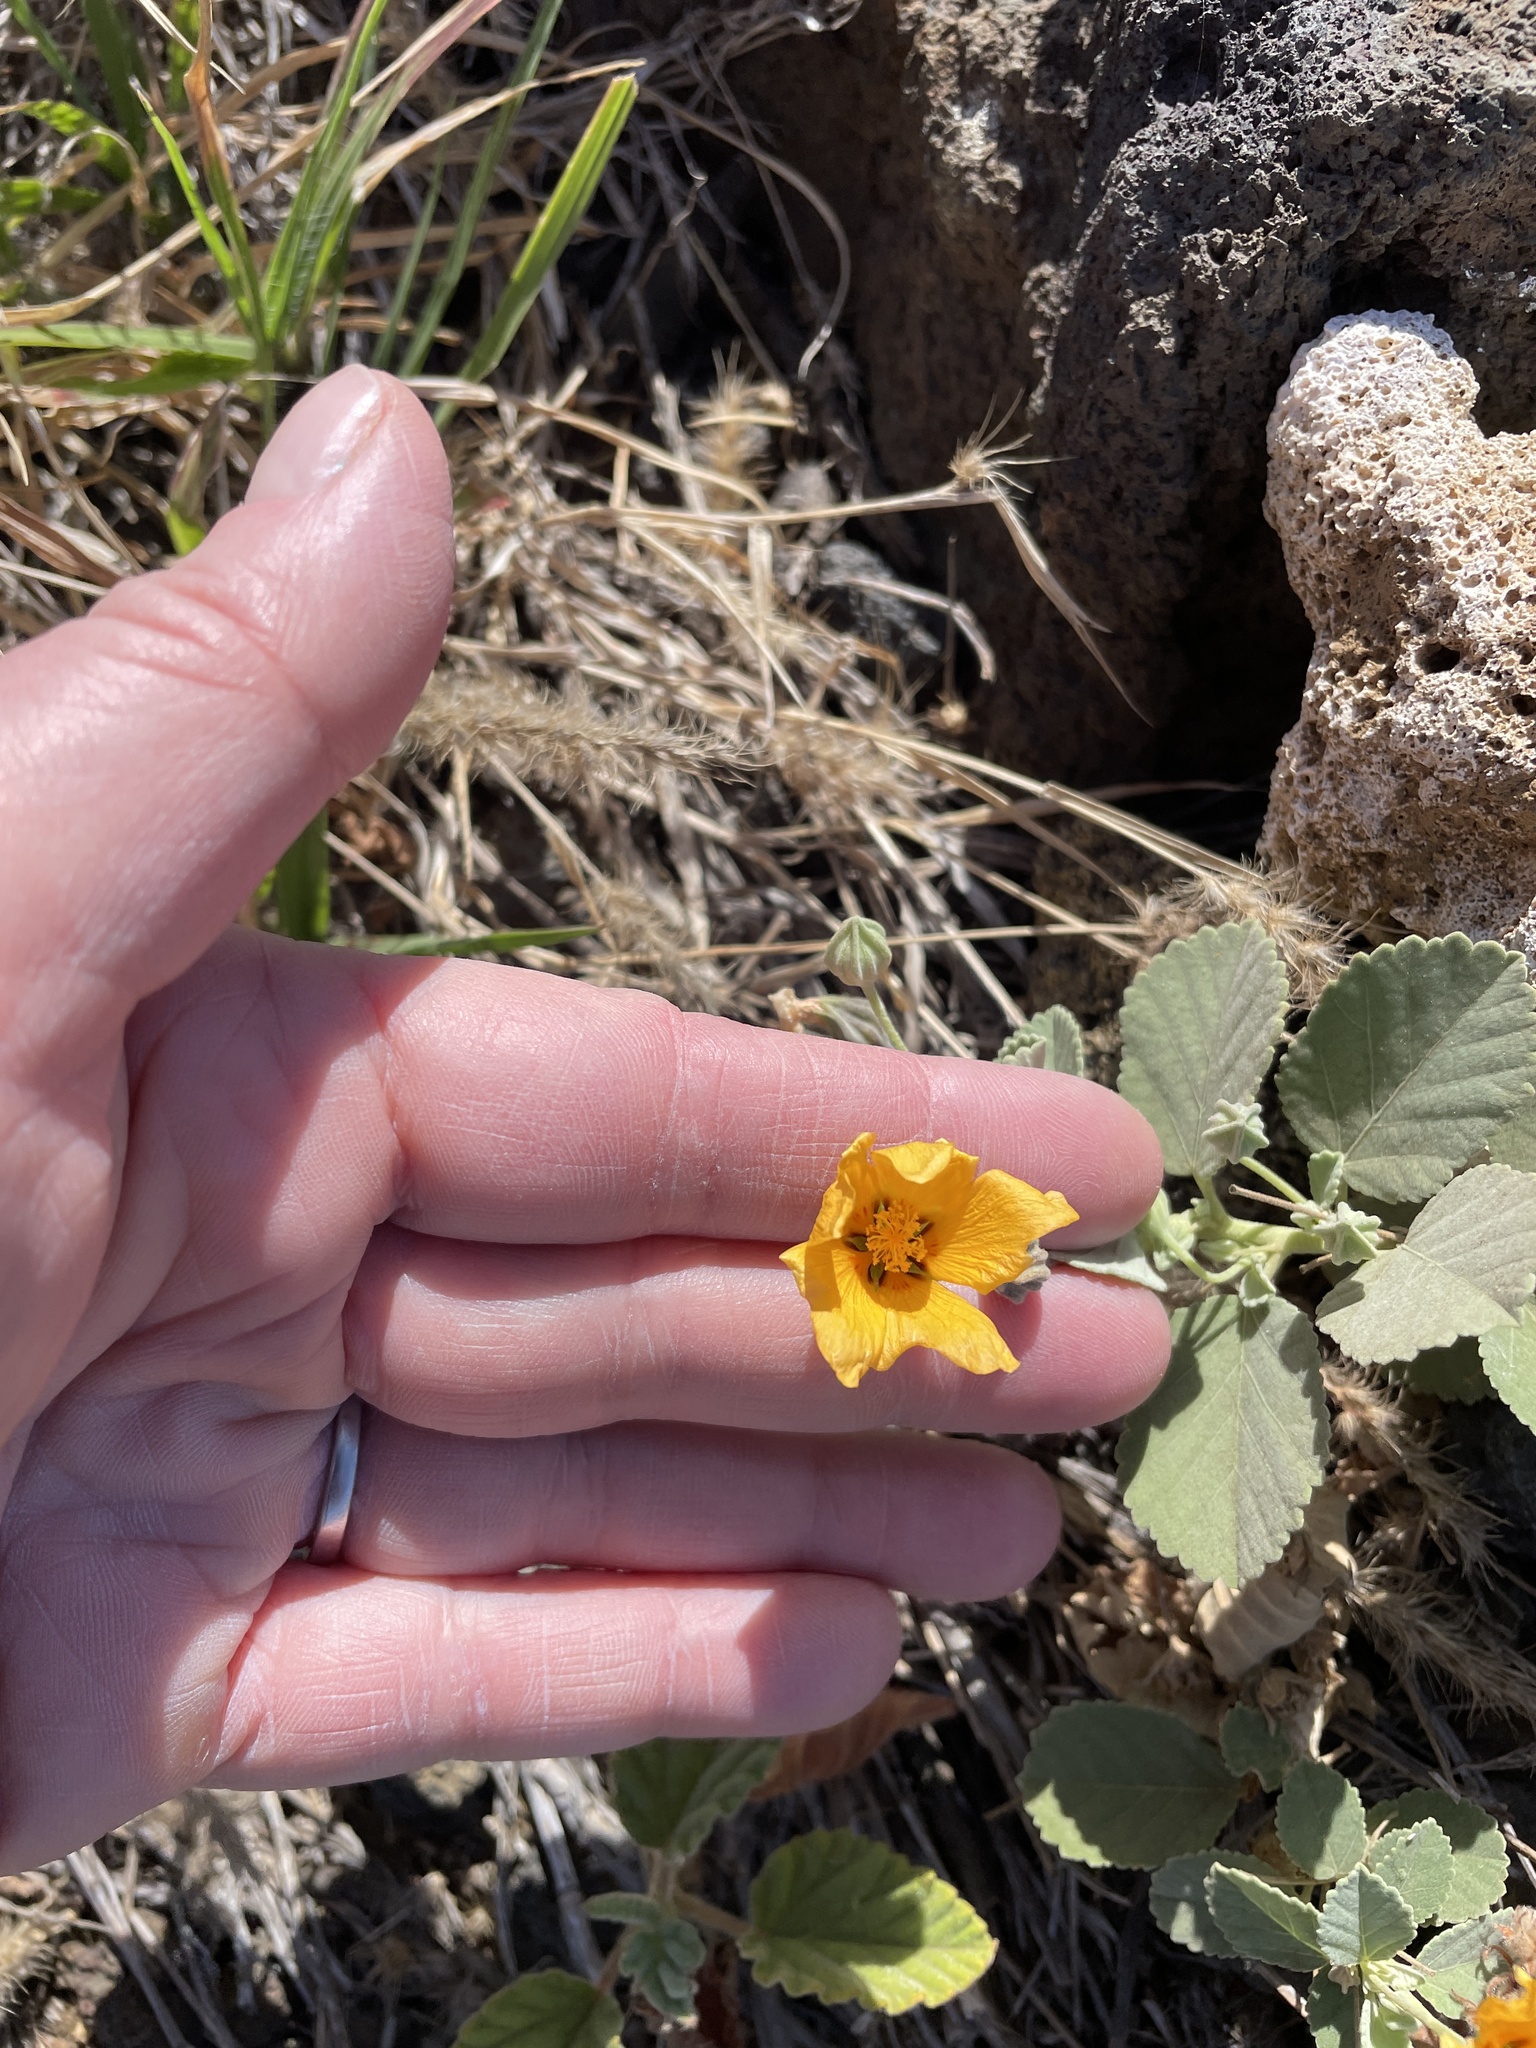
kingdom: Plantae
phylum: Tracheophyta
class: Magnoliopsida
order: Malvales
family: Malvaceae
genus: Sida
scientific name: Sida fallax
